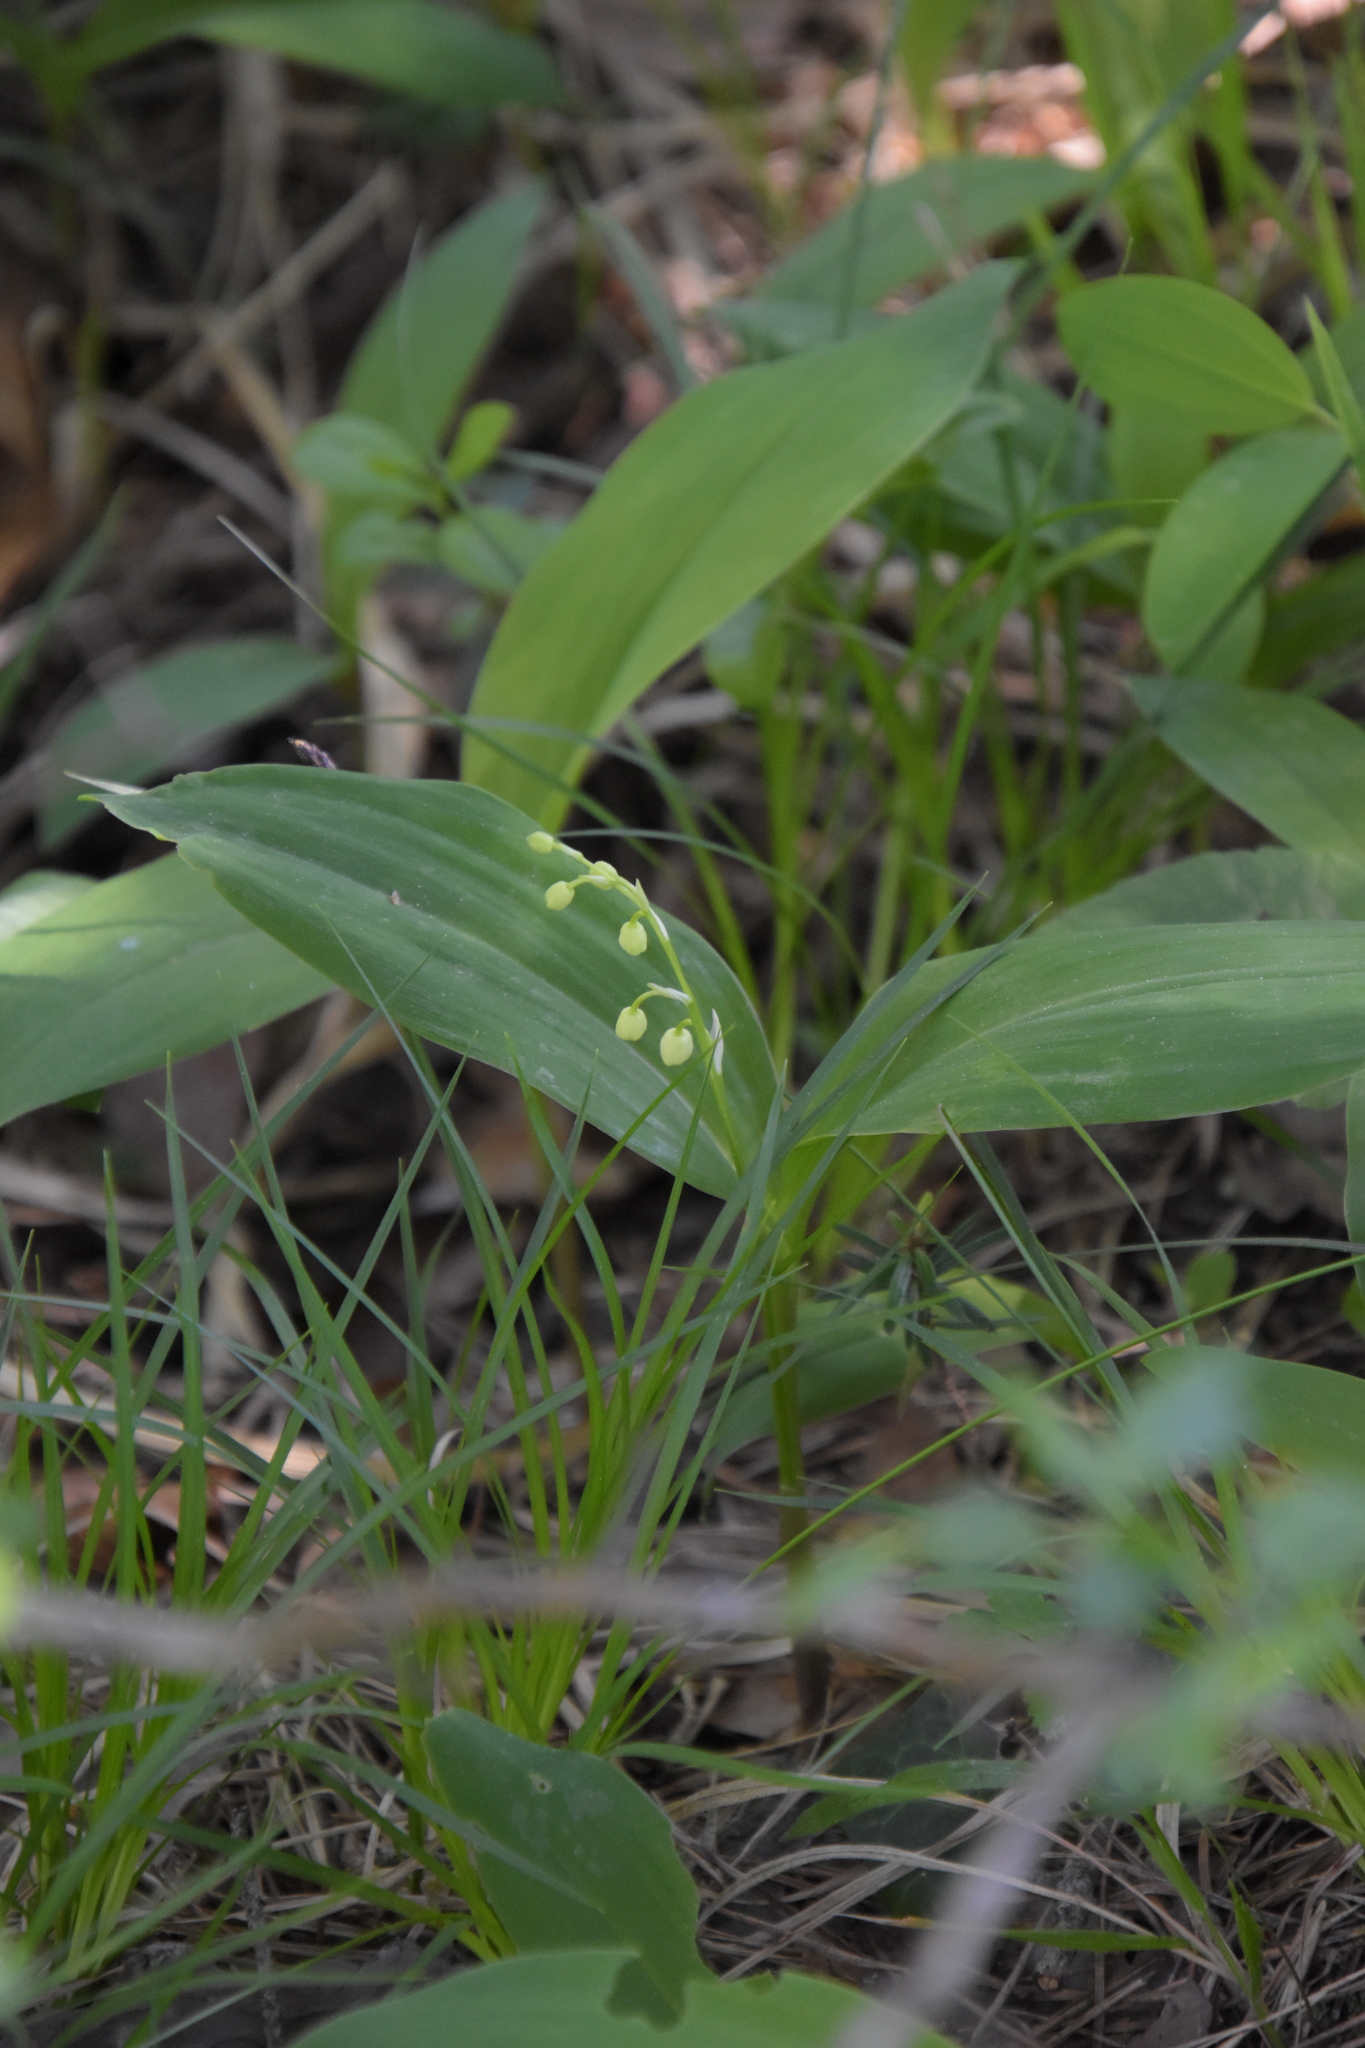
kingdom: Plantae
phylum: Tracheophyta
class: Liliopsida
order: Asparagales
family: Asparagaceae
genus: Convallaria
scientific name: Convallaria majalis
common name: Lily-of-the-valley
